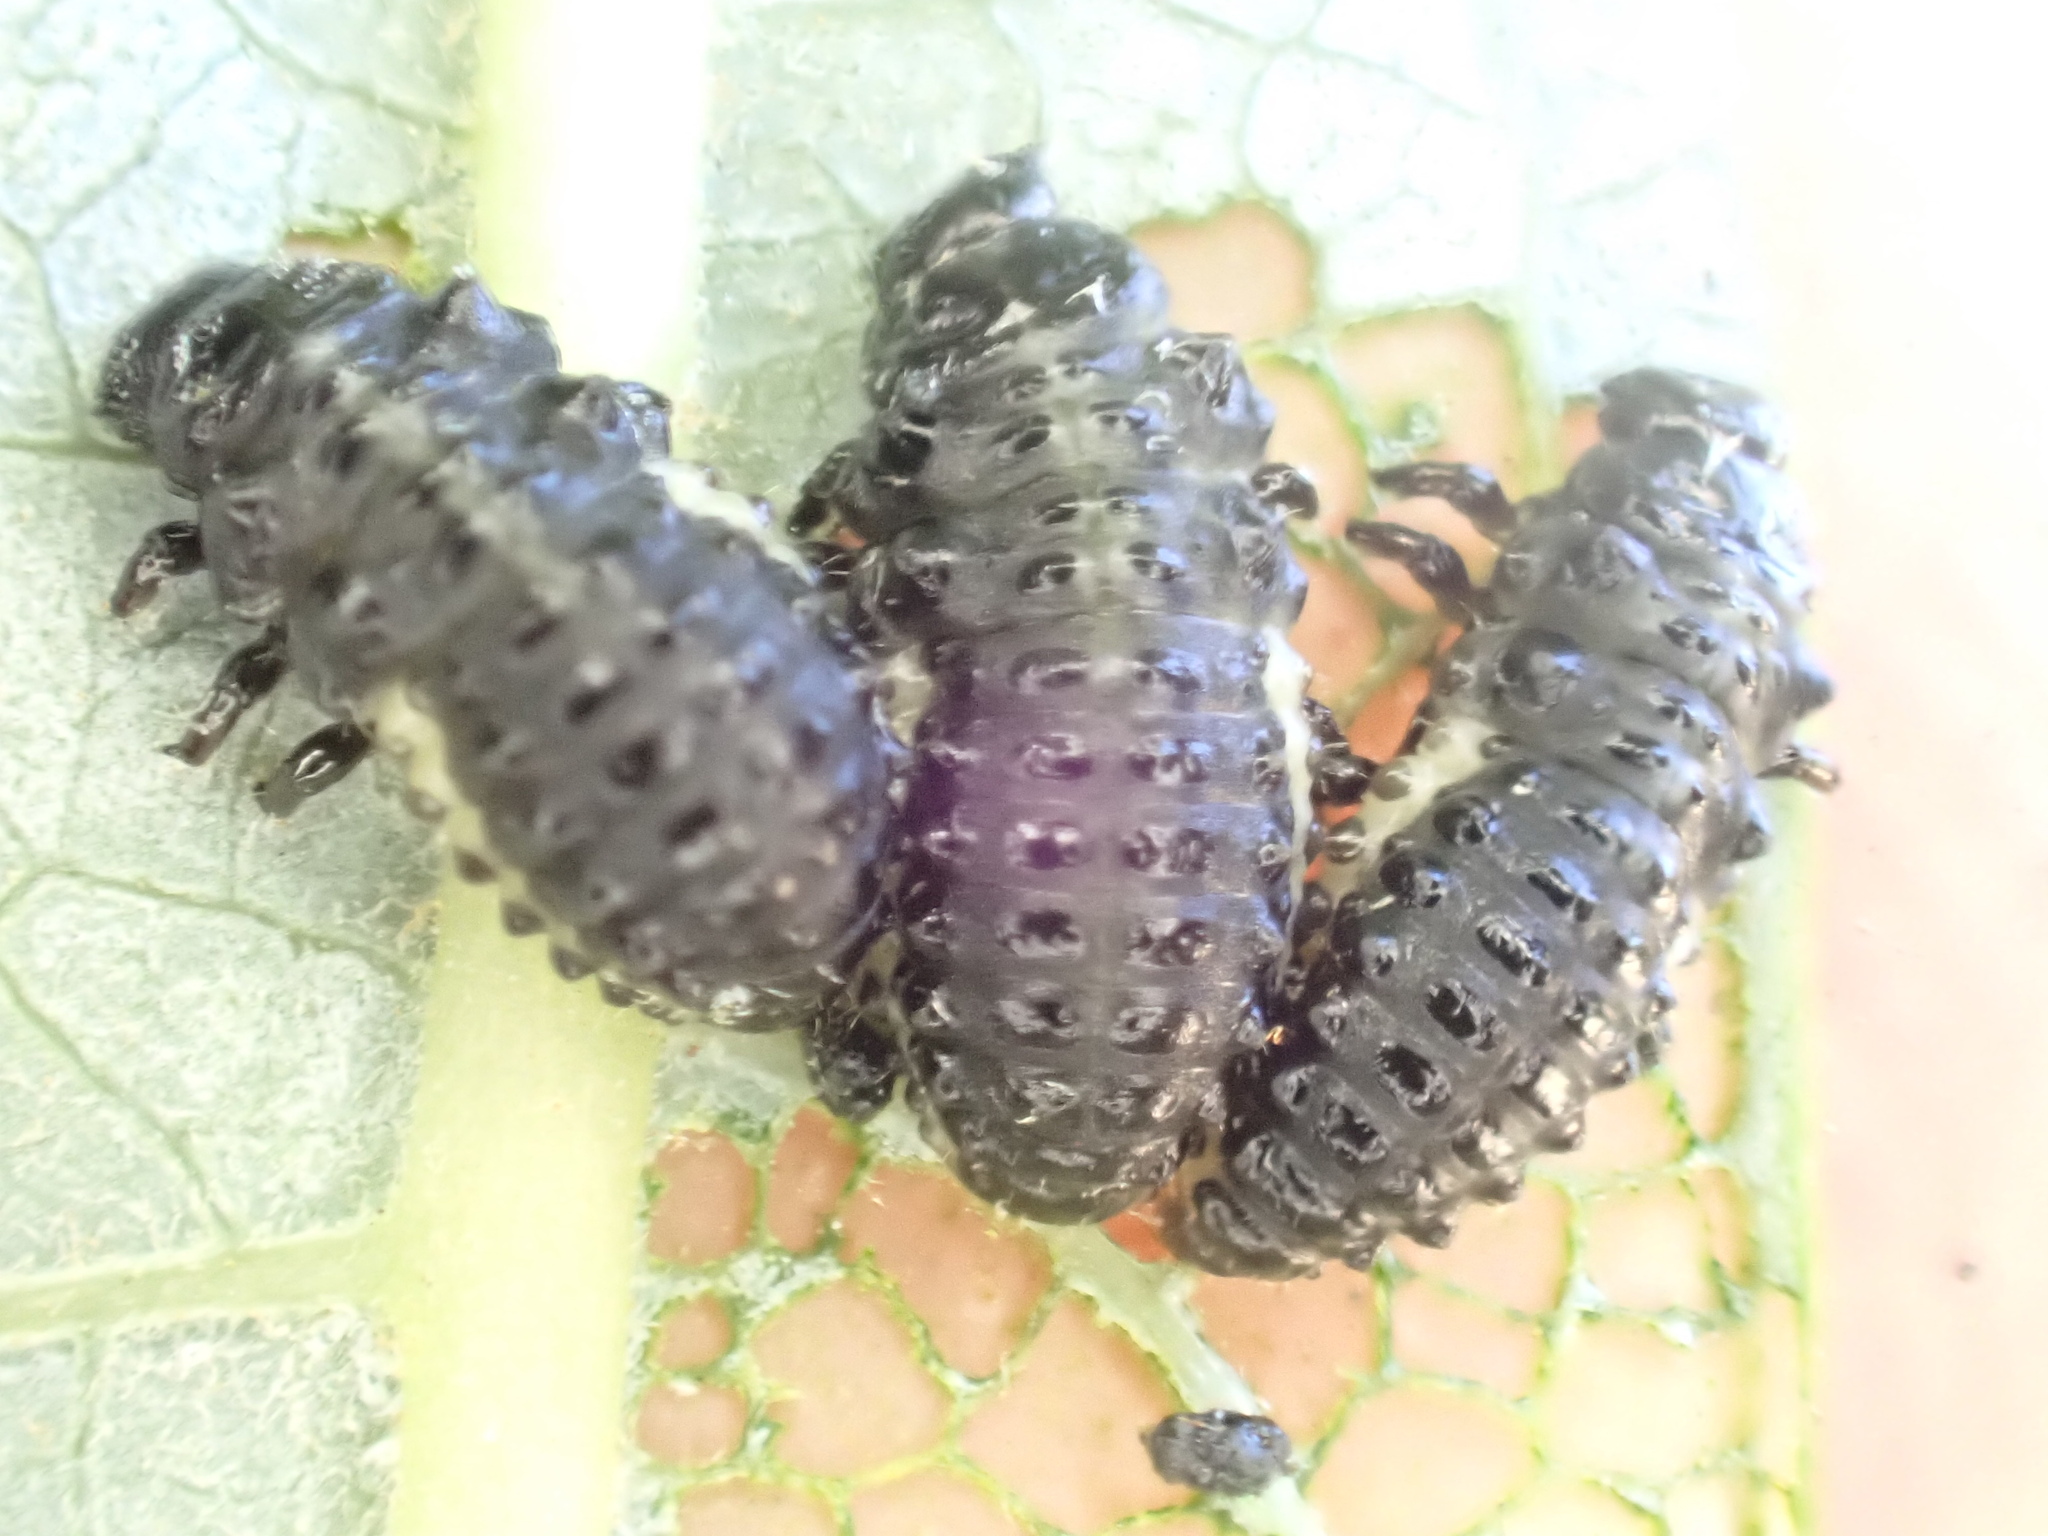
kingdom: Animalia
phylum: Arthropoda
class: Insecta
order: Coleoptera
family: Chrysomelidae
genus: Plagiodera
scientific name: Plagiodera californica
